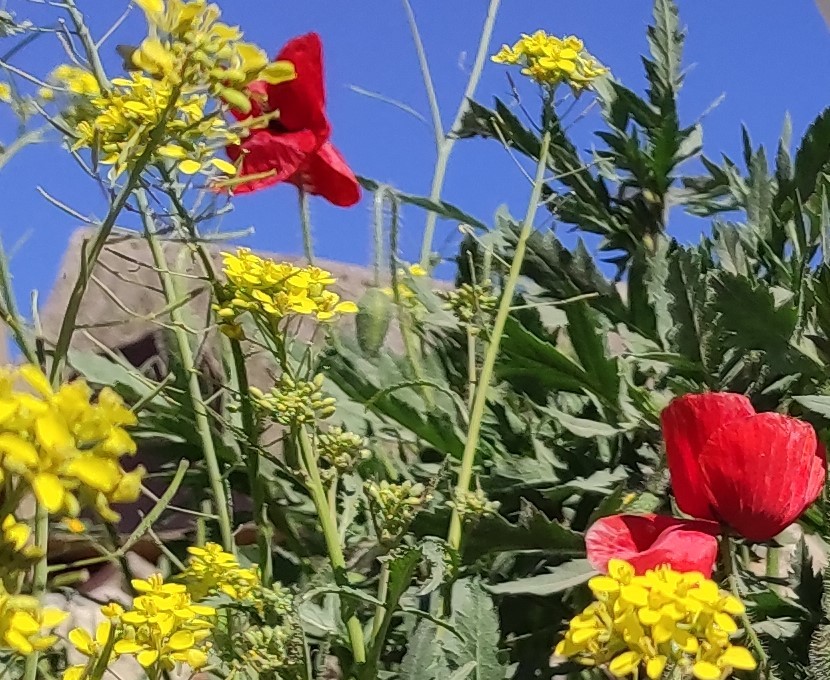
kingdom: Plantae
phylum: Tracheophyta
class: Magnoliopsida
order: Ranunculales
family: Papaveraceae
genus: Papaver
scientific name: Papaver rhoeas
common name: Corn poppy
